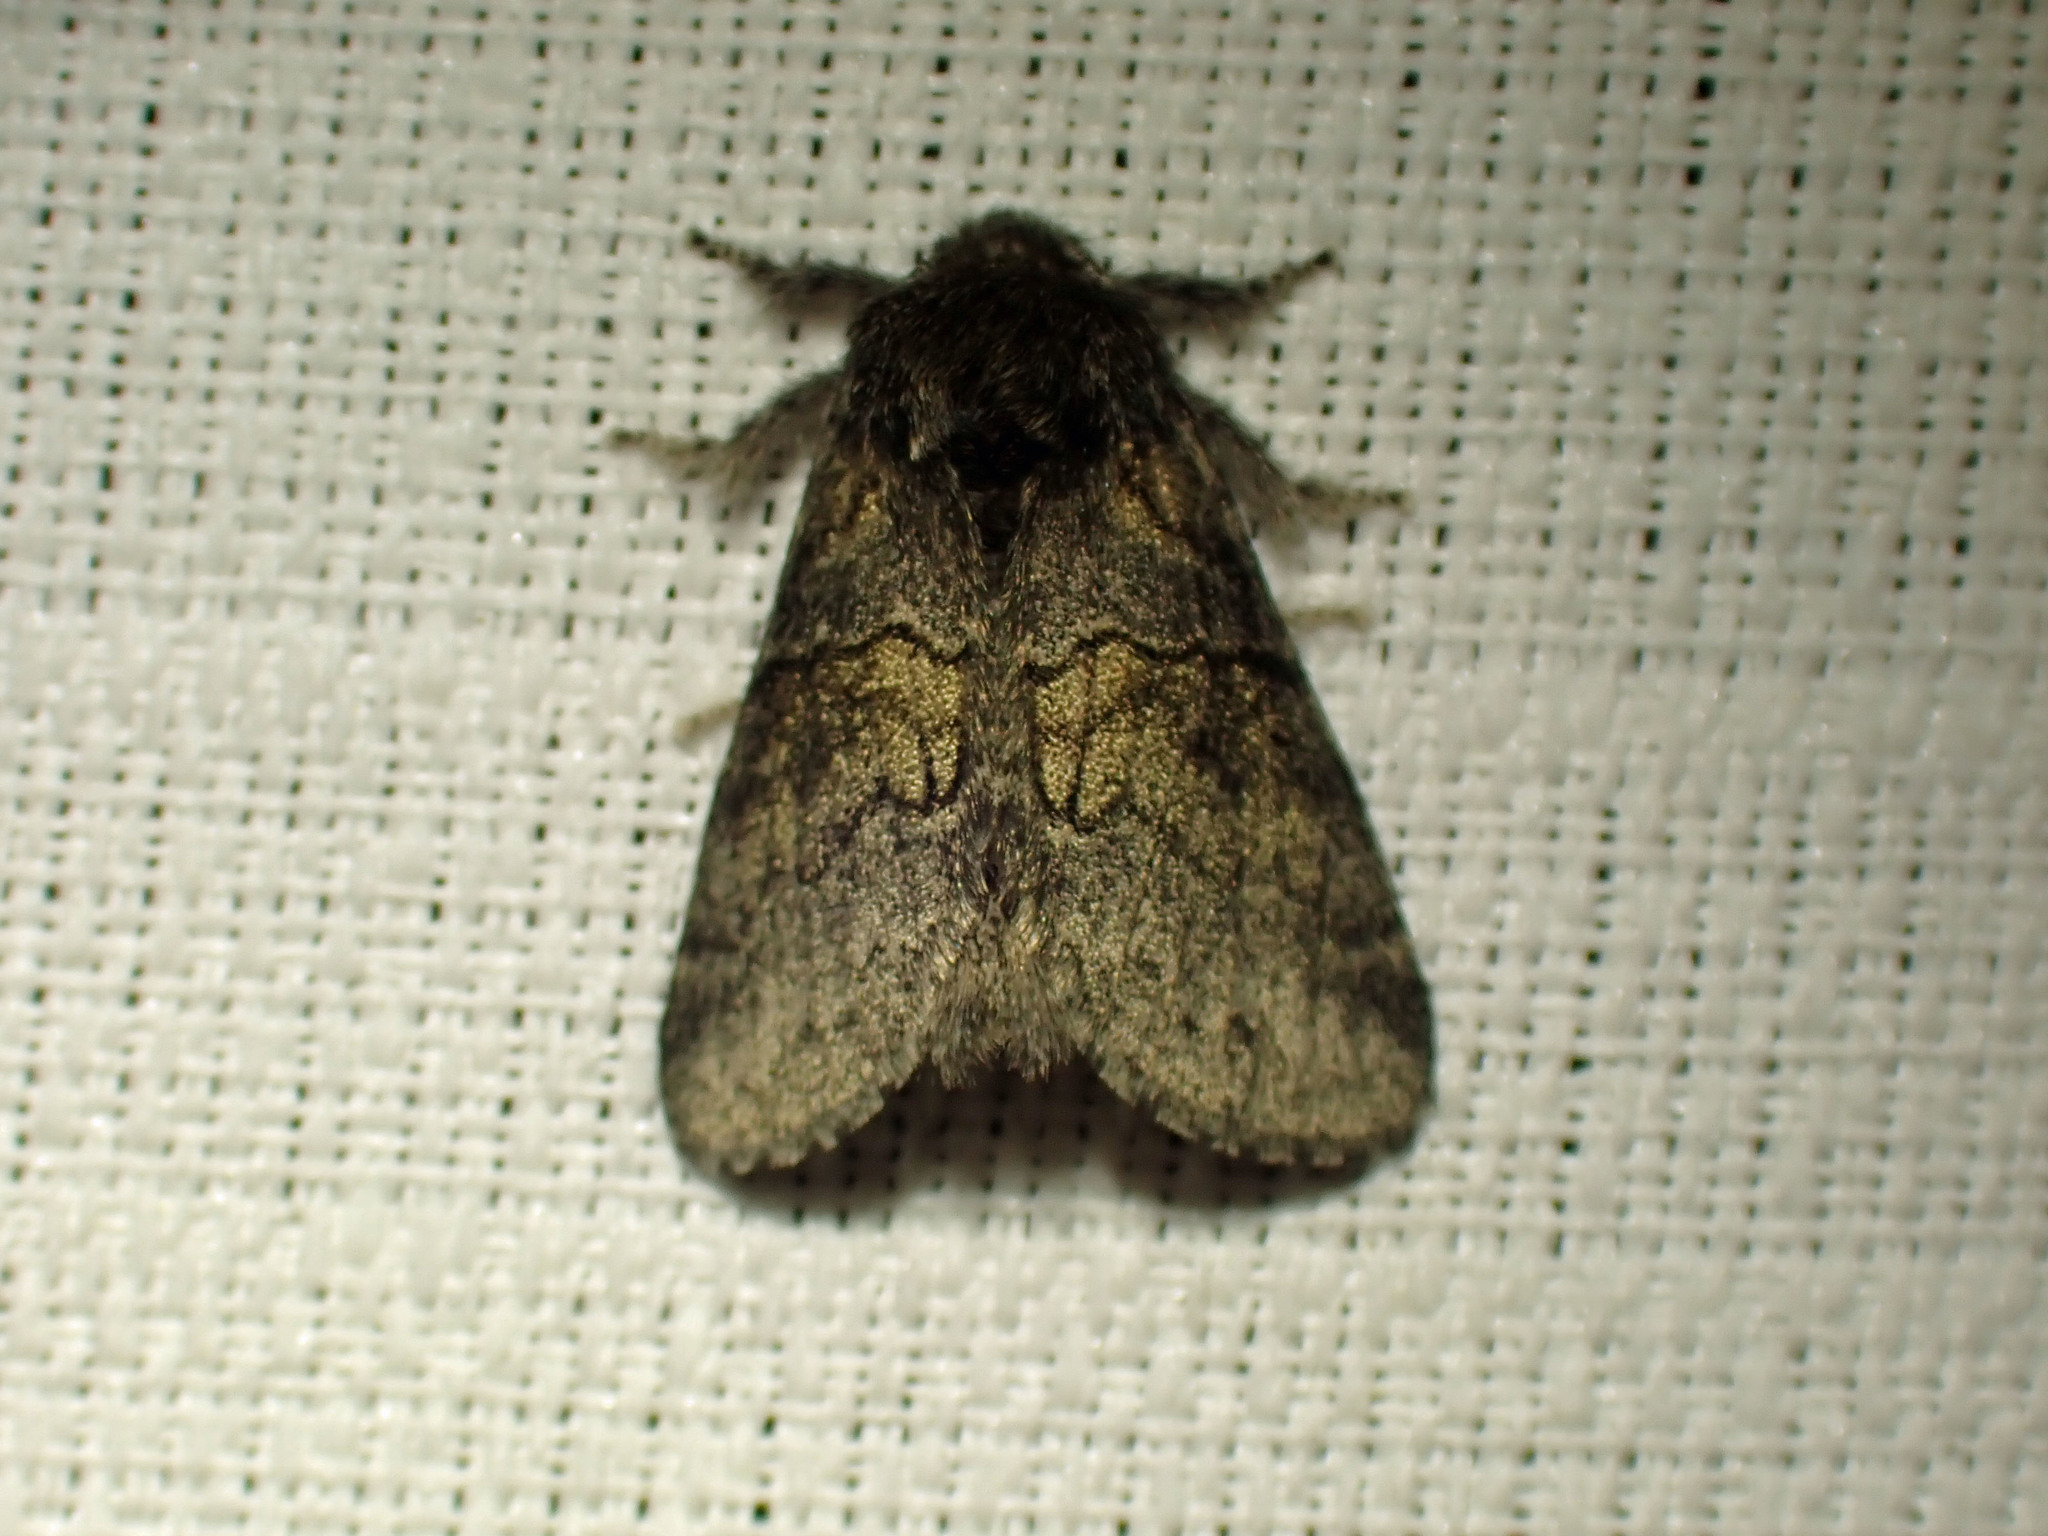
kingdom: Animalia
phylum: Arthropoda
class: Insecta
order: Lepidoptera
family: Notodontidae
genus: Gluphisia
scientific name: Gluphisia septentrionis
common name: Common gluphisia
